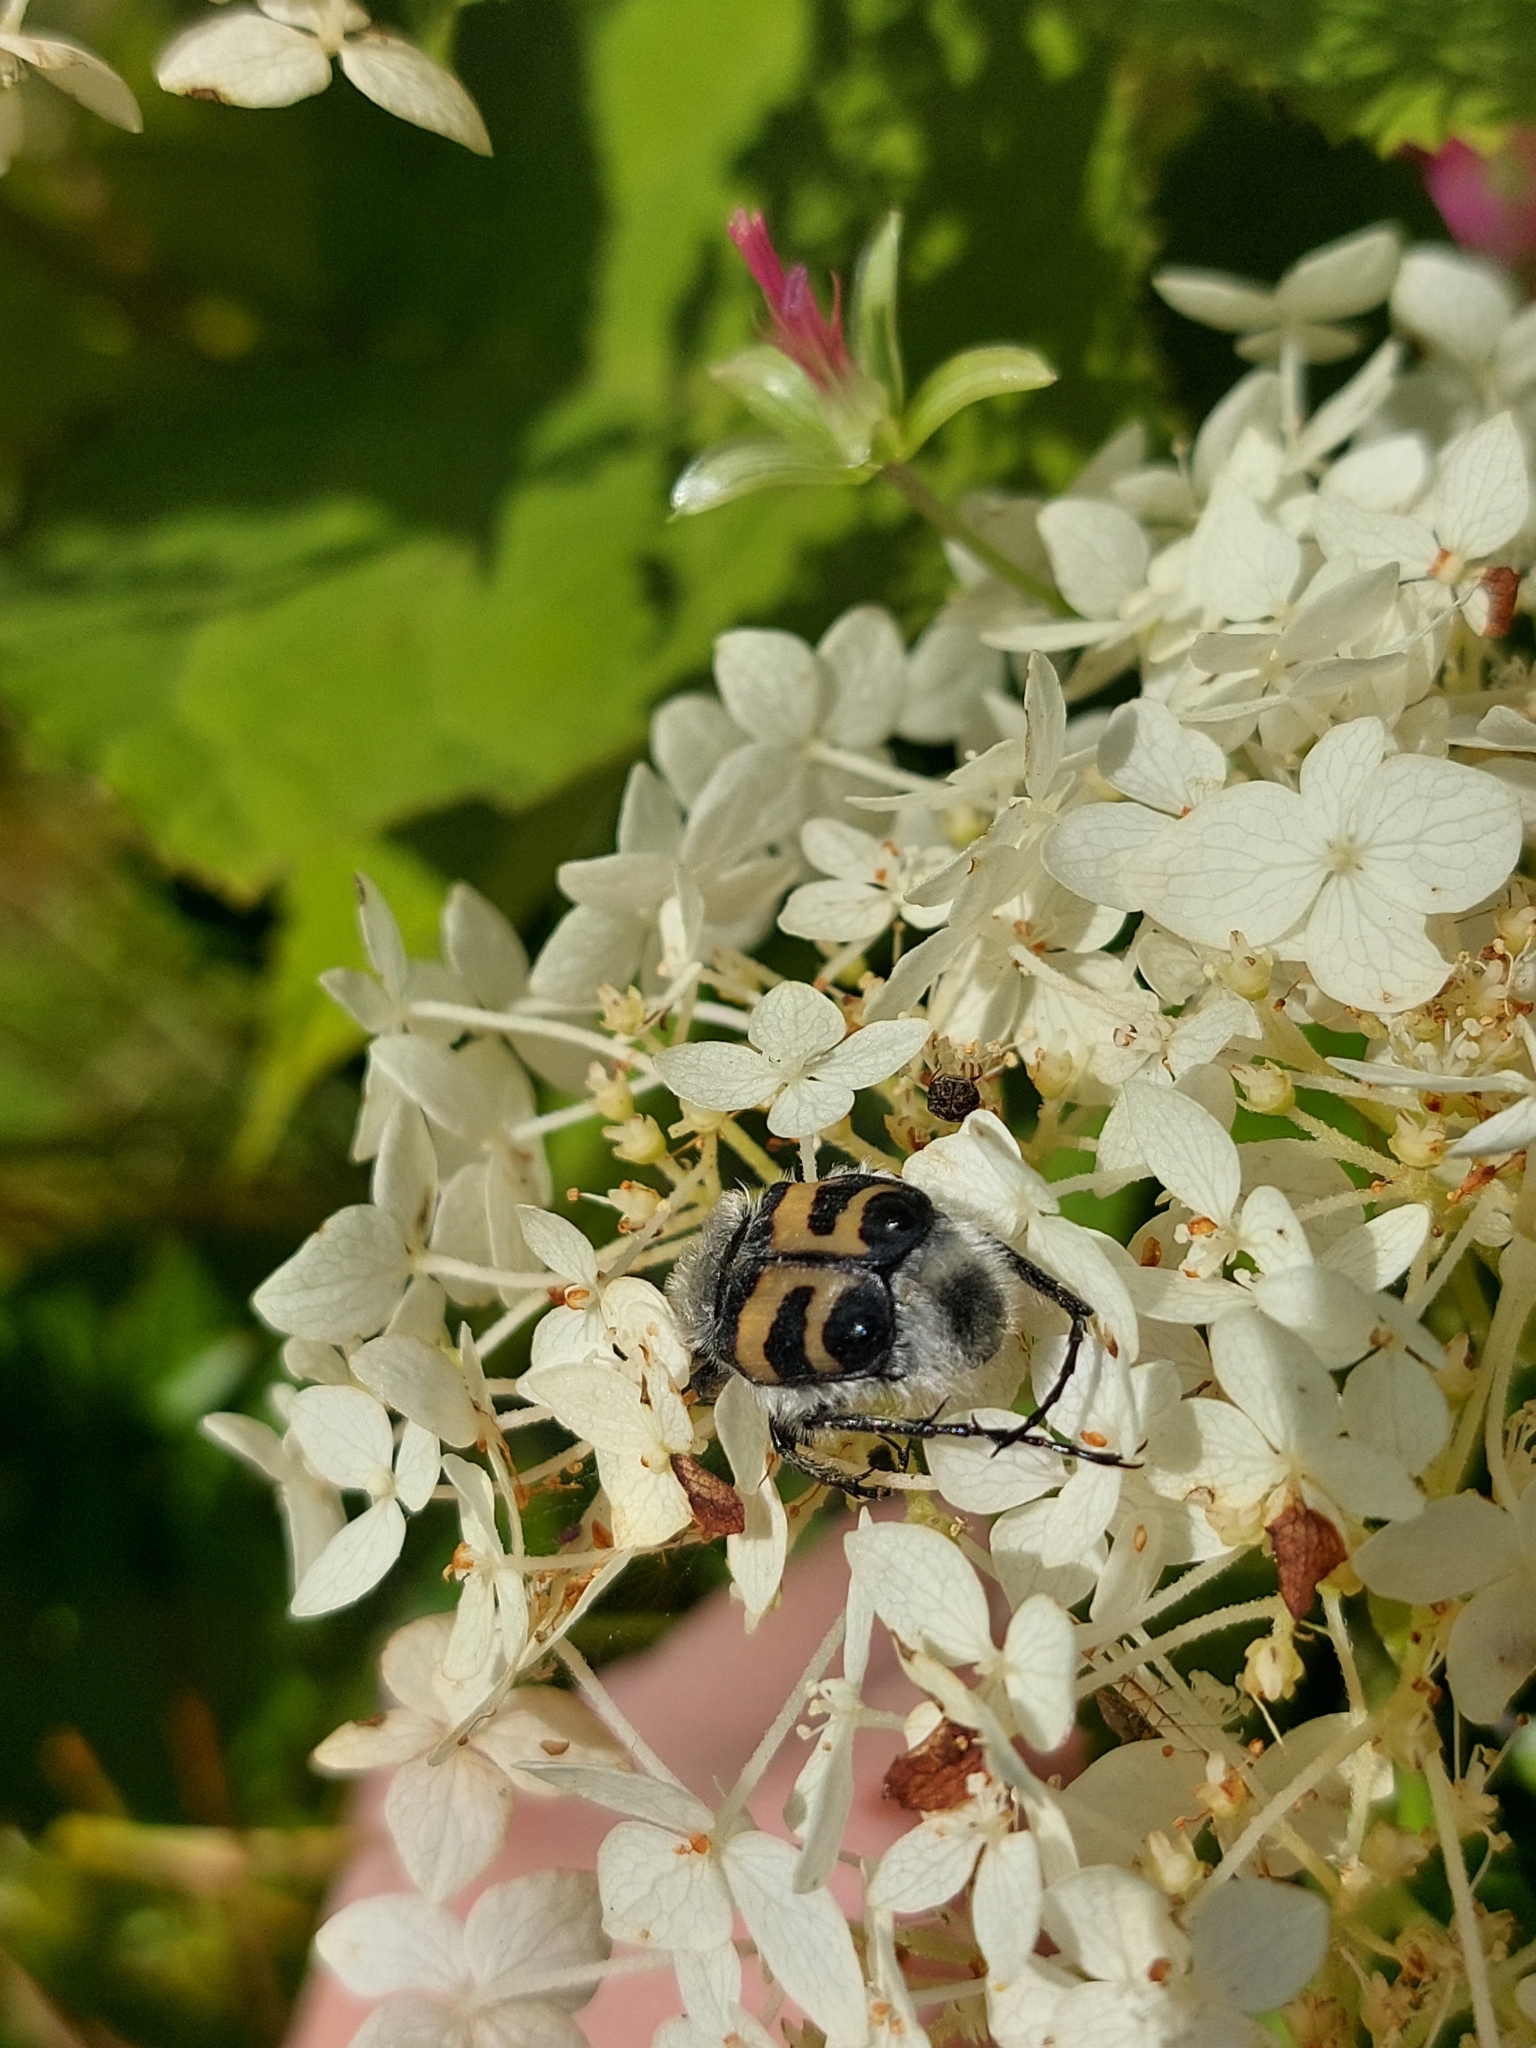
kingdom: Animalia
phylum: Arthropoda
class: Insecta
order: Coleoptera
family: Scarabaeidae
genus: Trichius
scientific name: Trichius fasciatus
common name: Bee beetle
